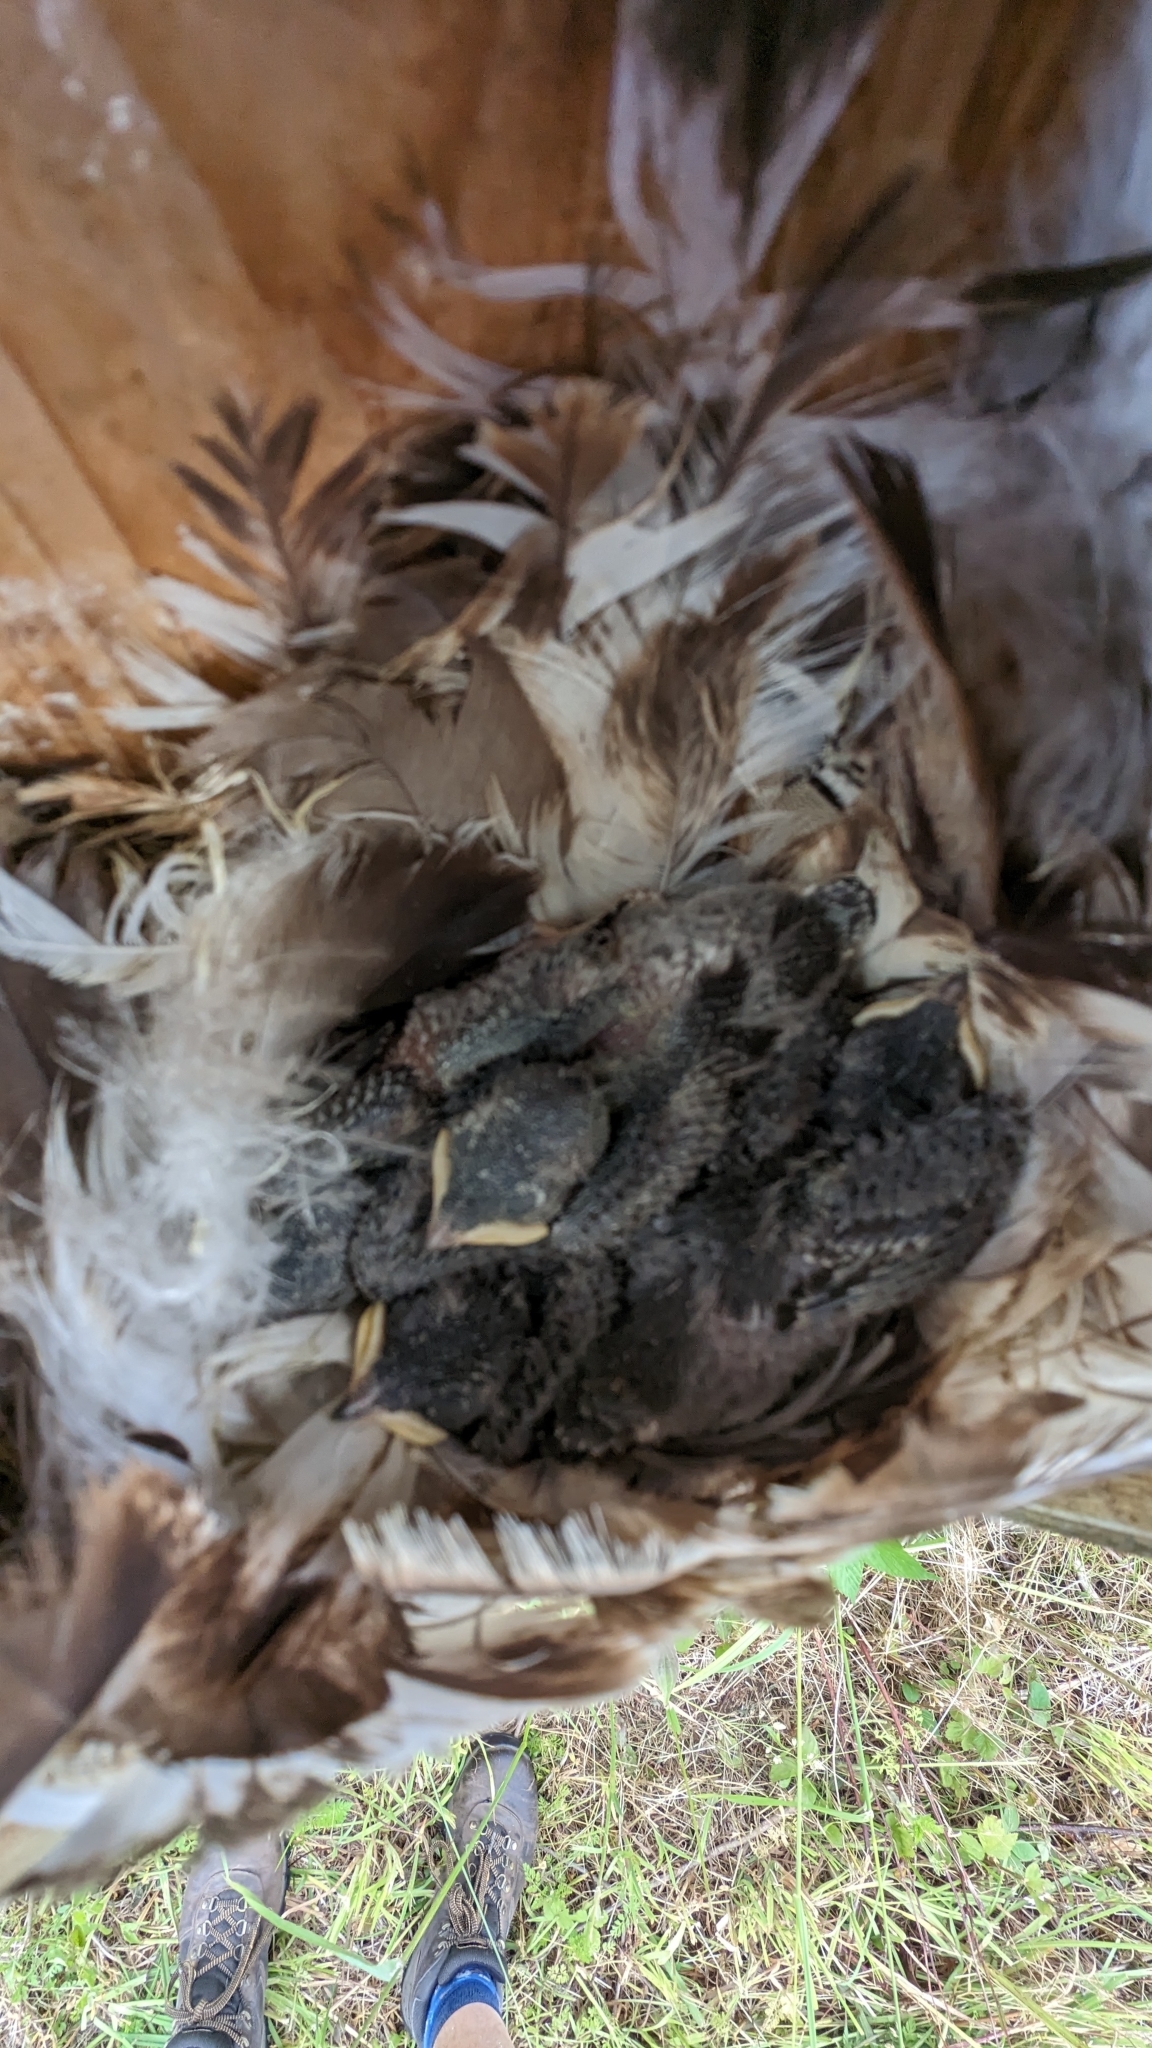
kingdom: Animalia
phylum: Chordata
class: Aves
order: Passeriformes
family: Hirundinidae
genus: Tachycineta
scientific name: Tachycineta bicolor
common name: Tree swallow
